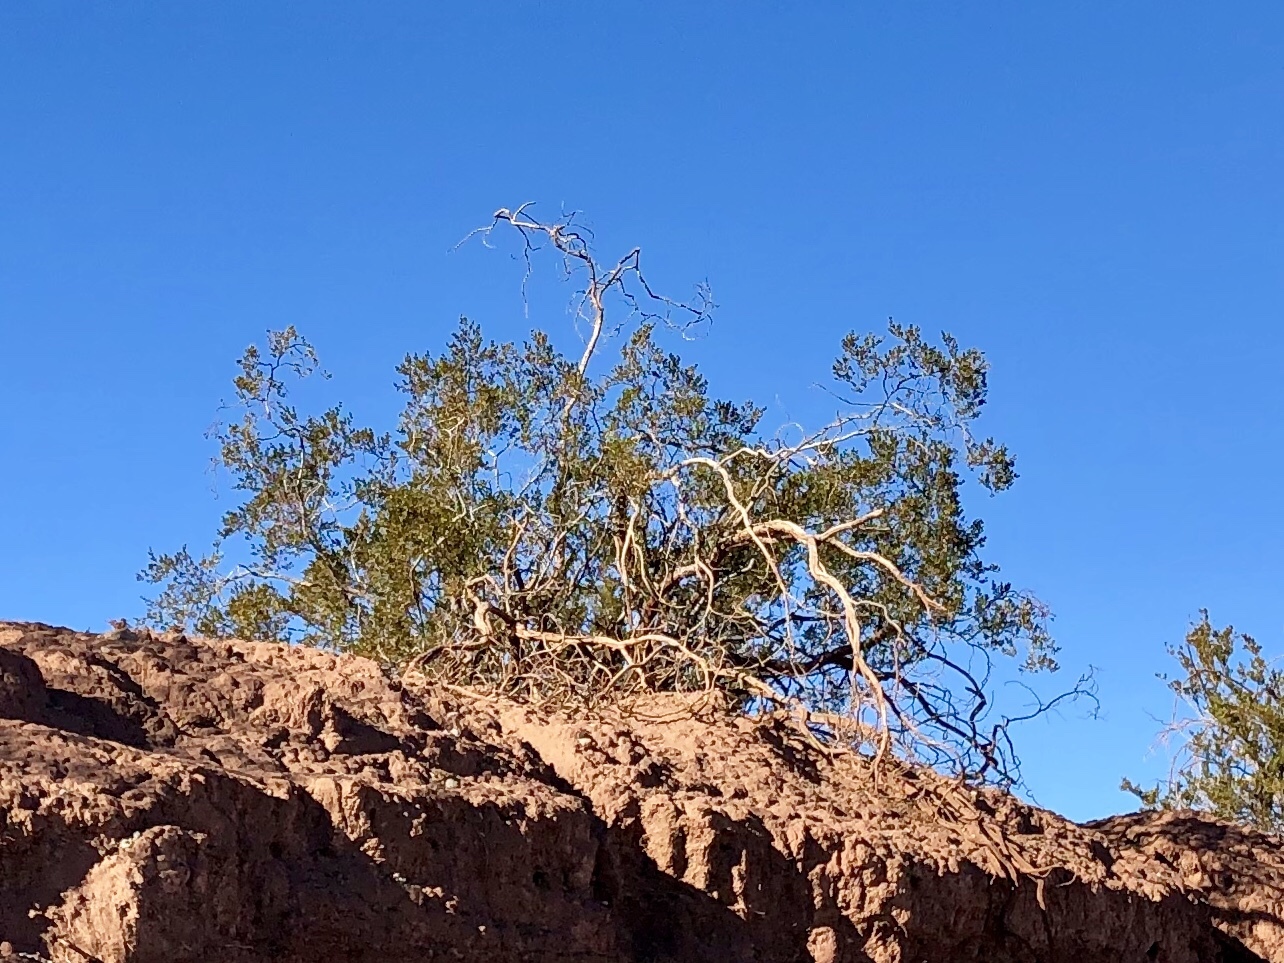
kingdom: Plantae
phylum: Tracheophyta
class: Magnoliopsida
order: Zygophyllales
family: Zygophyllaceae
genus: Larrea
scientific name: Larrea tridentata
